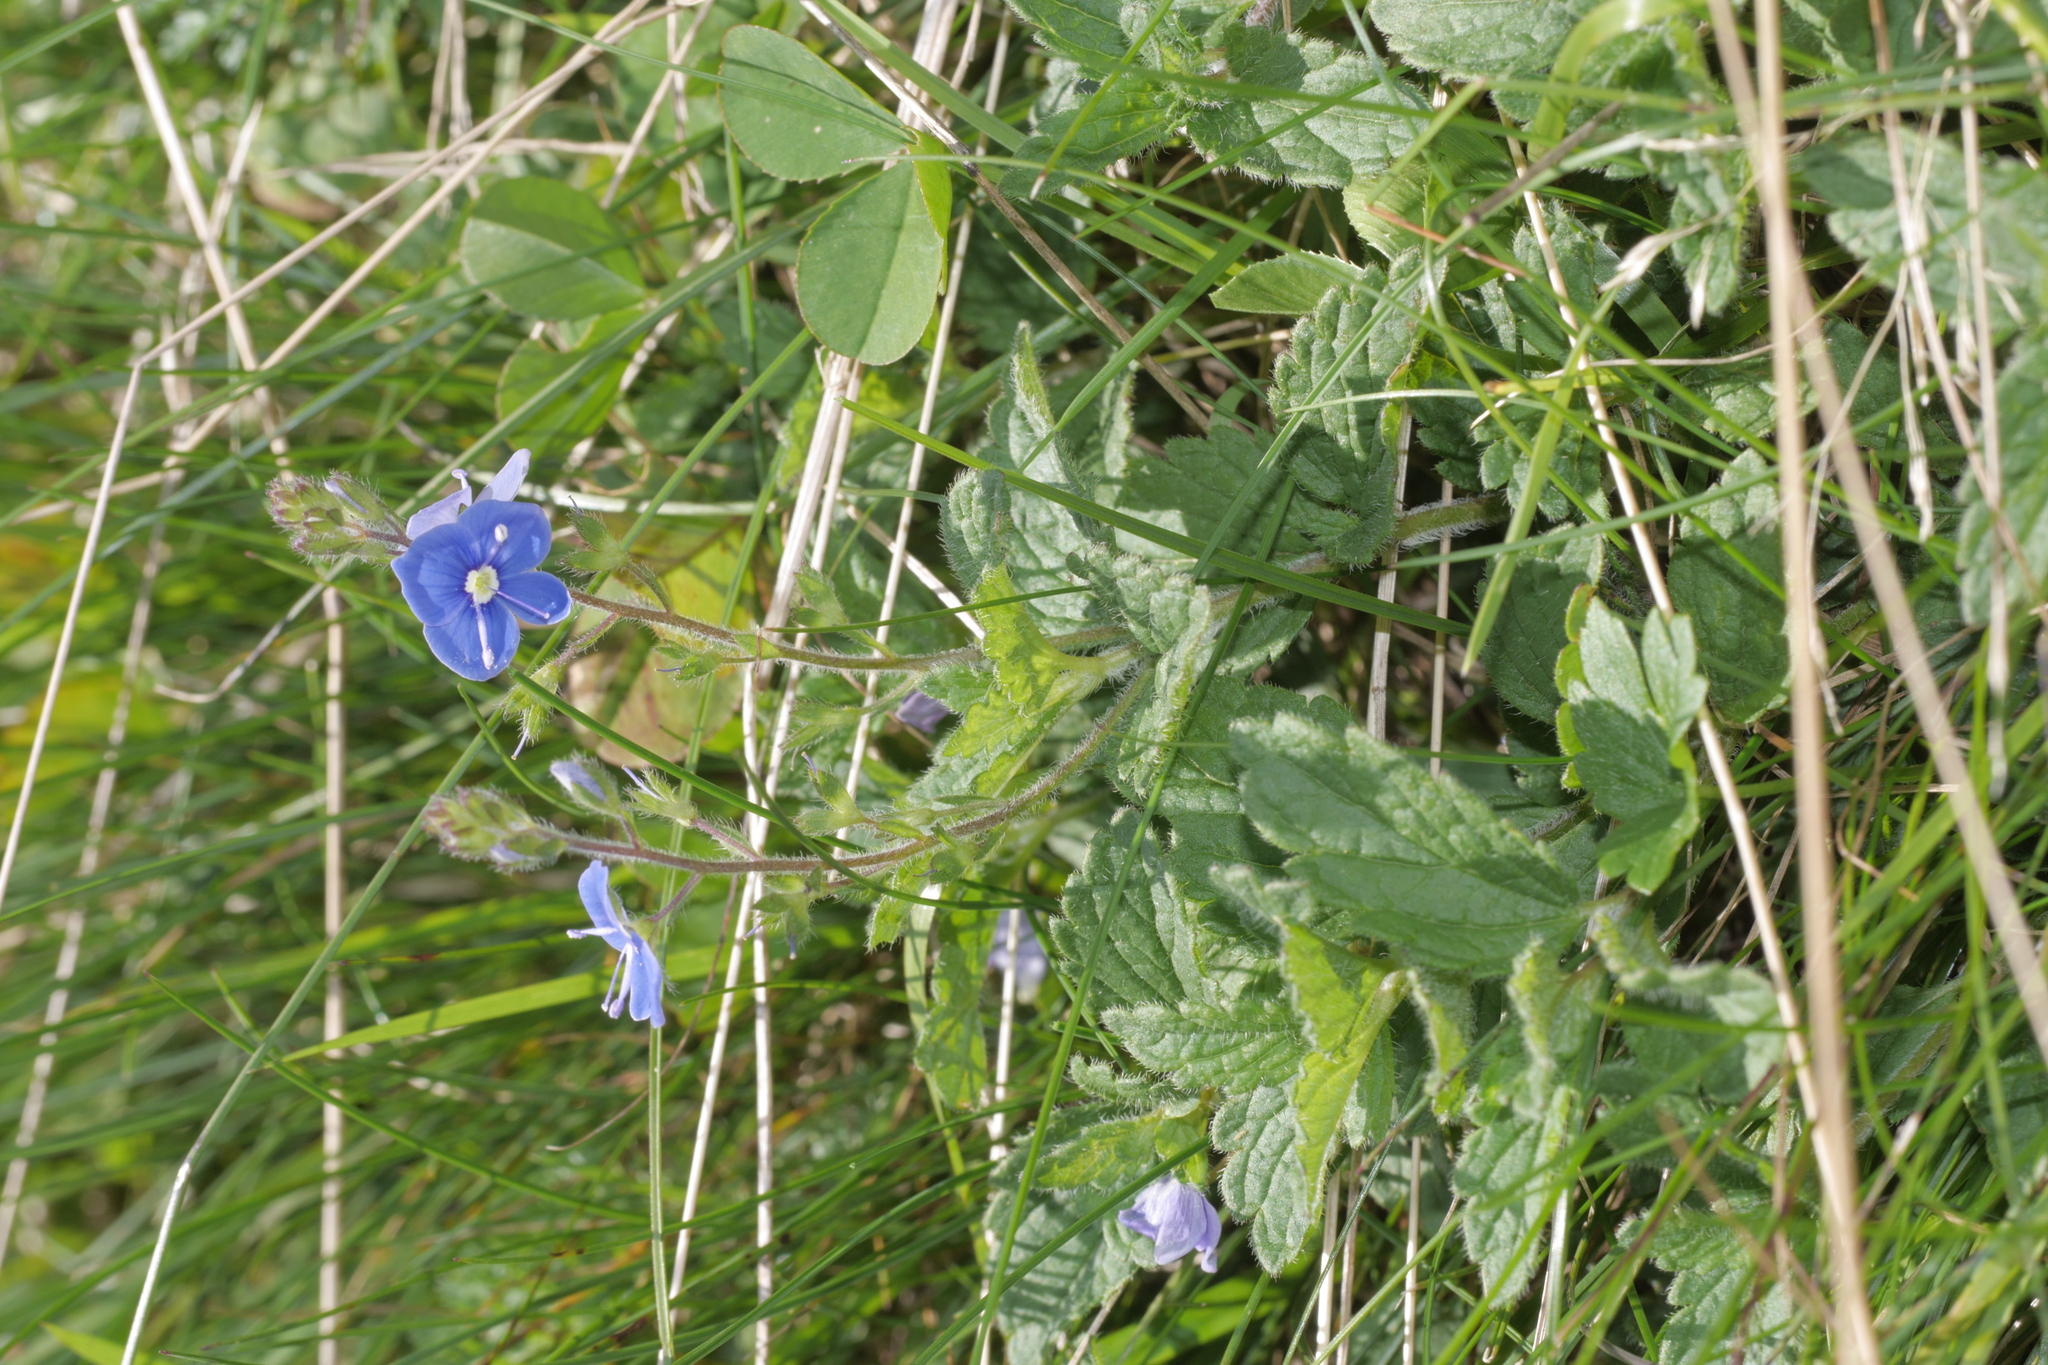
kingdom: Plantae
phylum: Tracheophyta
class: Magnoliopsida
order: Lamiales
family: Plantaginaceae
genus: Veronica
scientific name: Veronica chamaedrys
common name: Germander speedwell
